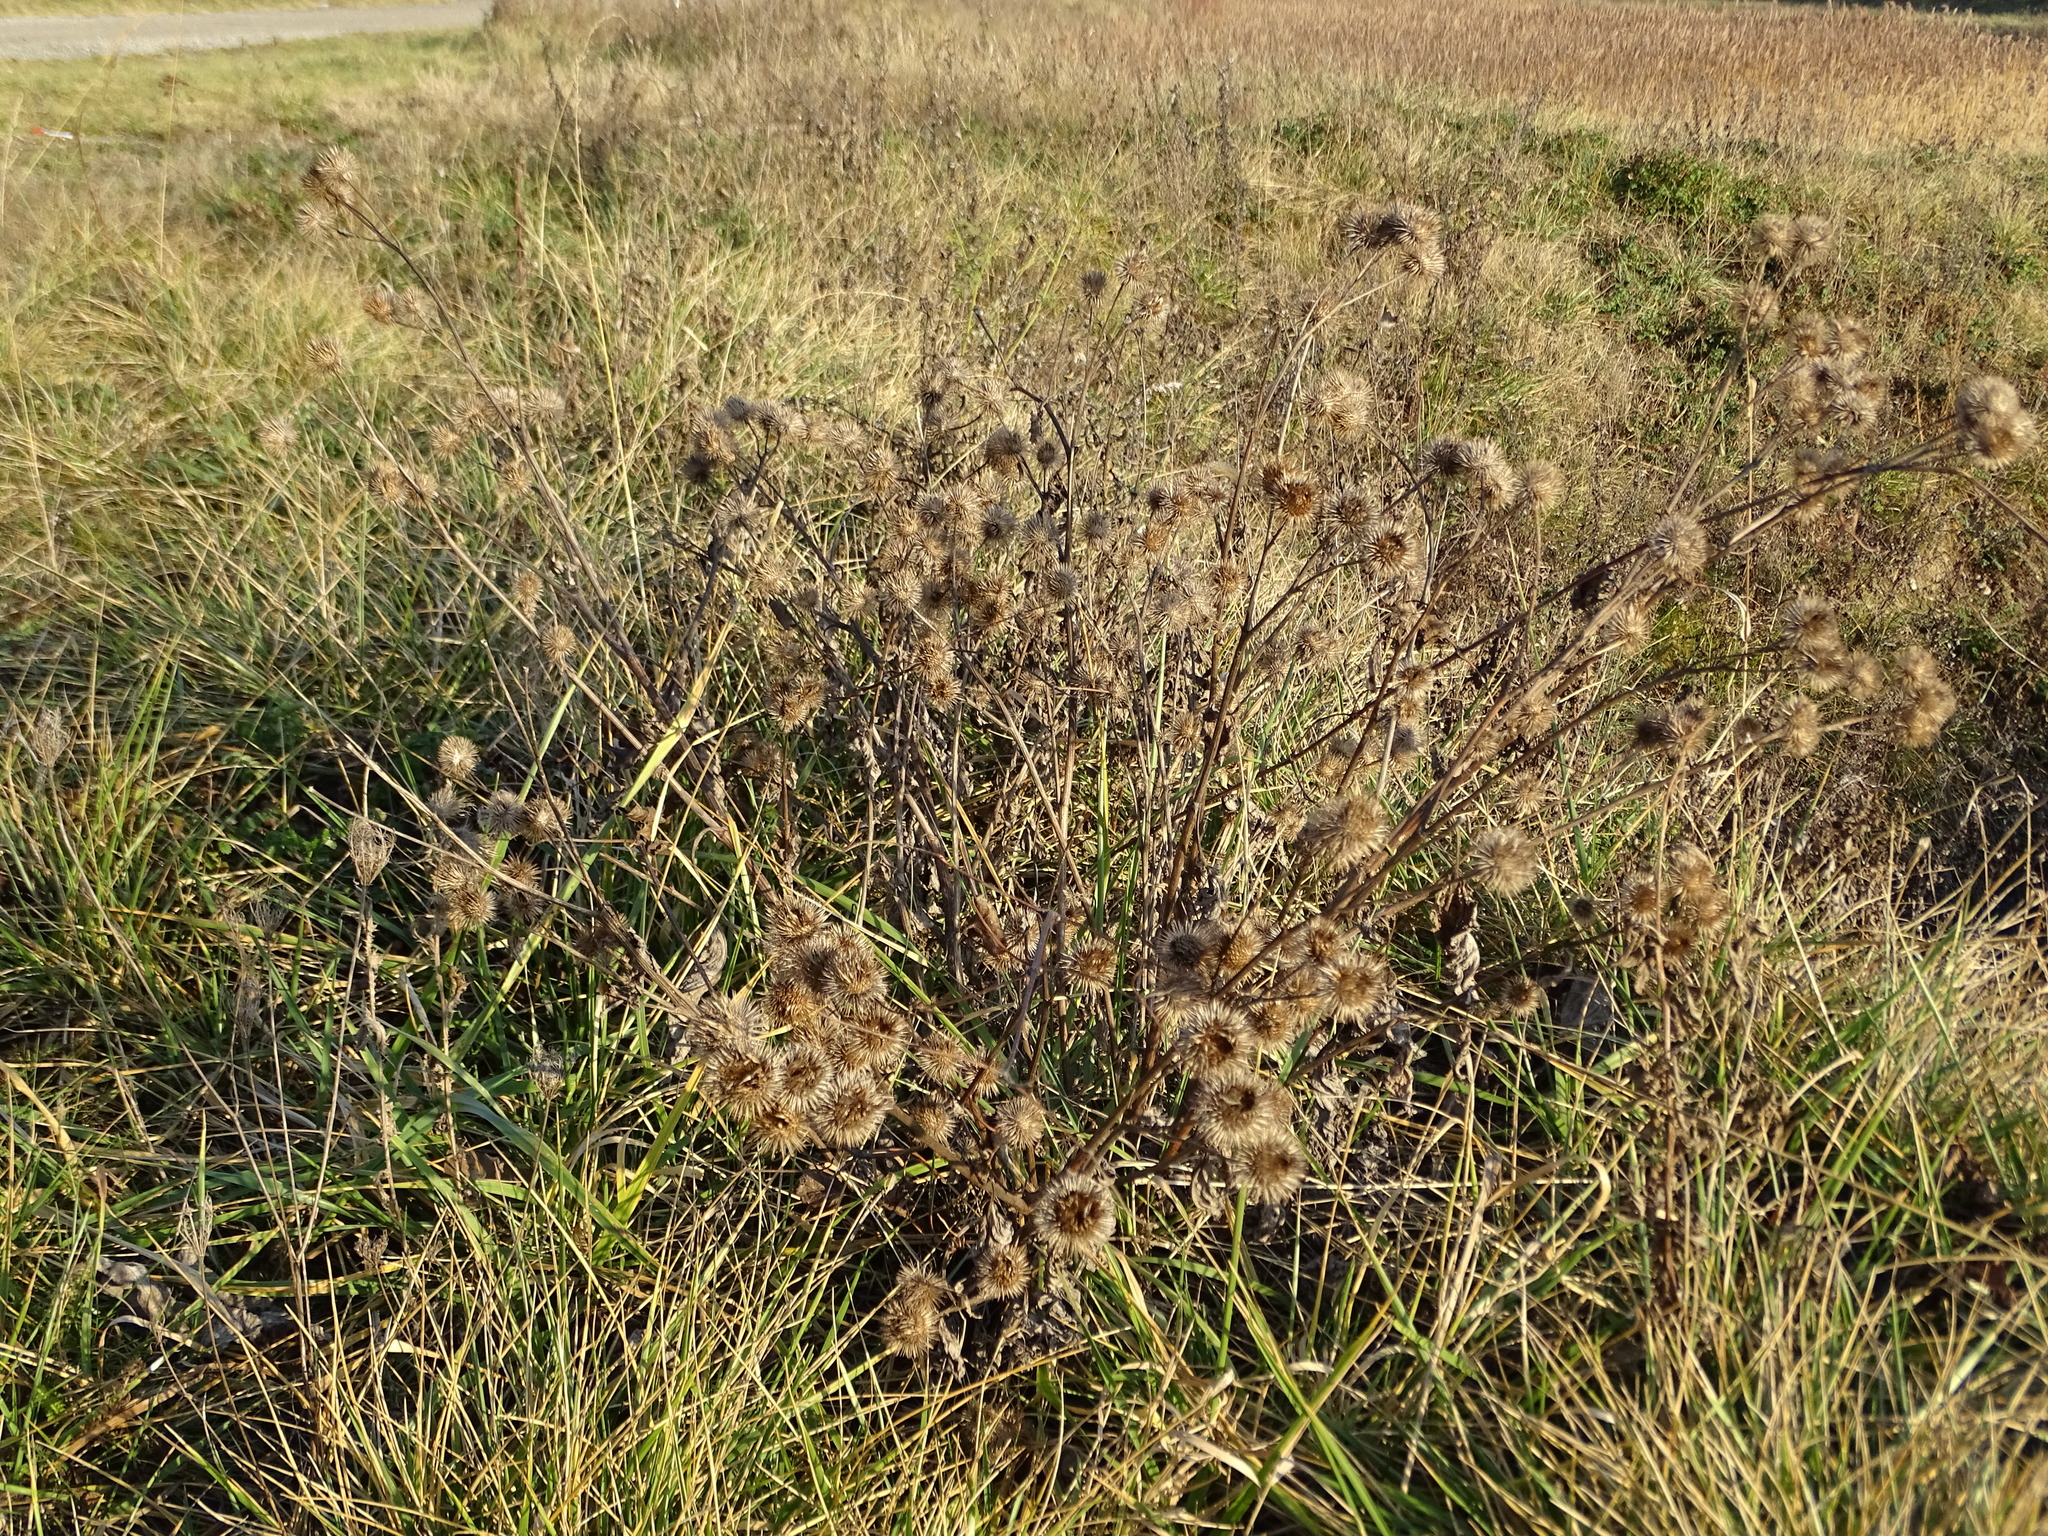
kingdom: Plantae
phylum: Tracheophyta
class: Magnoliopsida
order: Asterales
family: Asteraceae
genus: Arctium
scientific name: Arctium lappa
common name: Greater burdock
